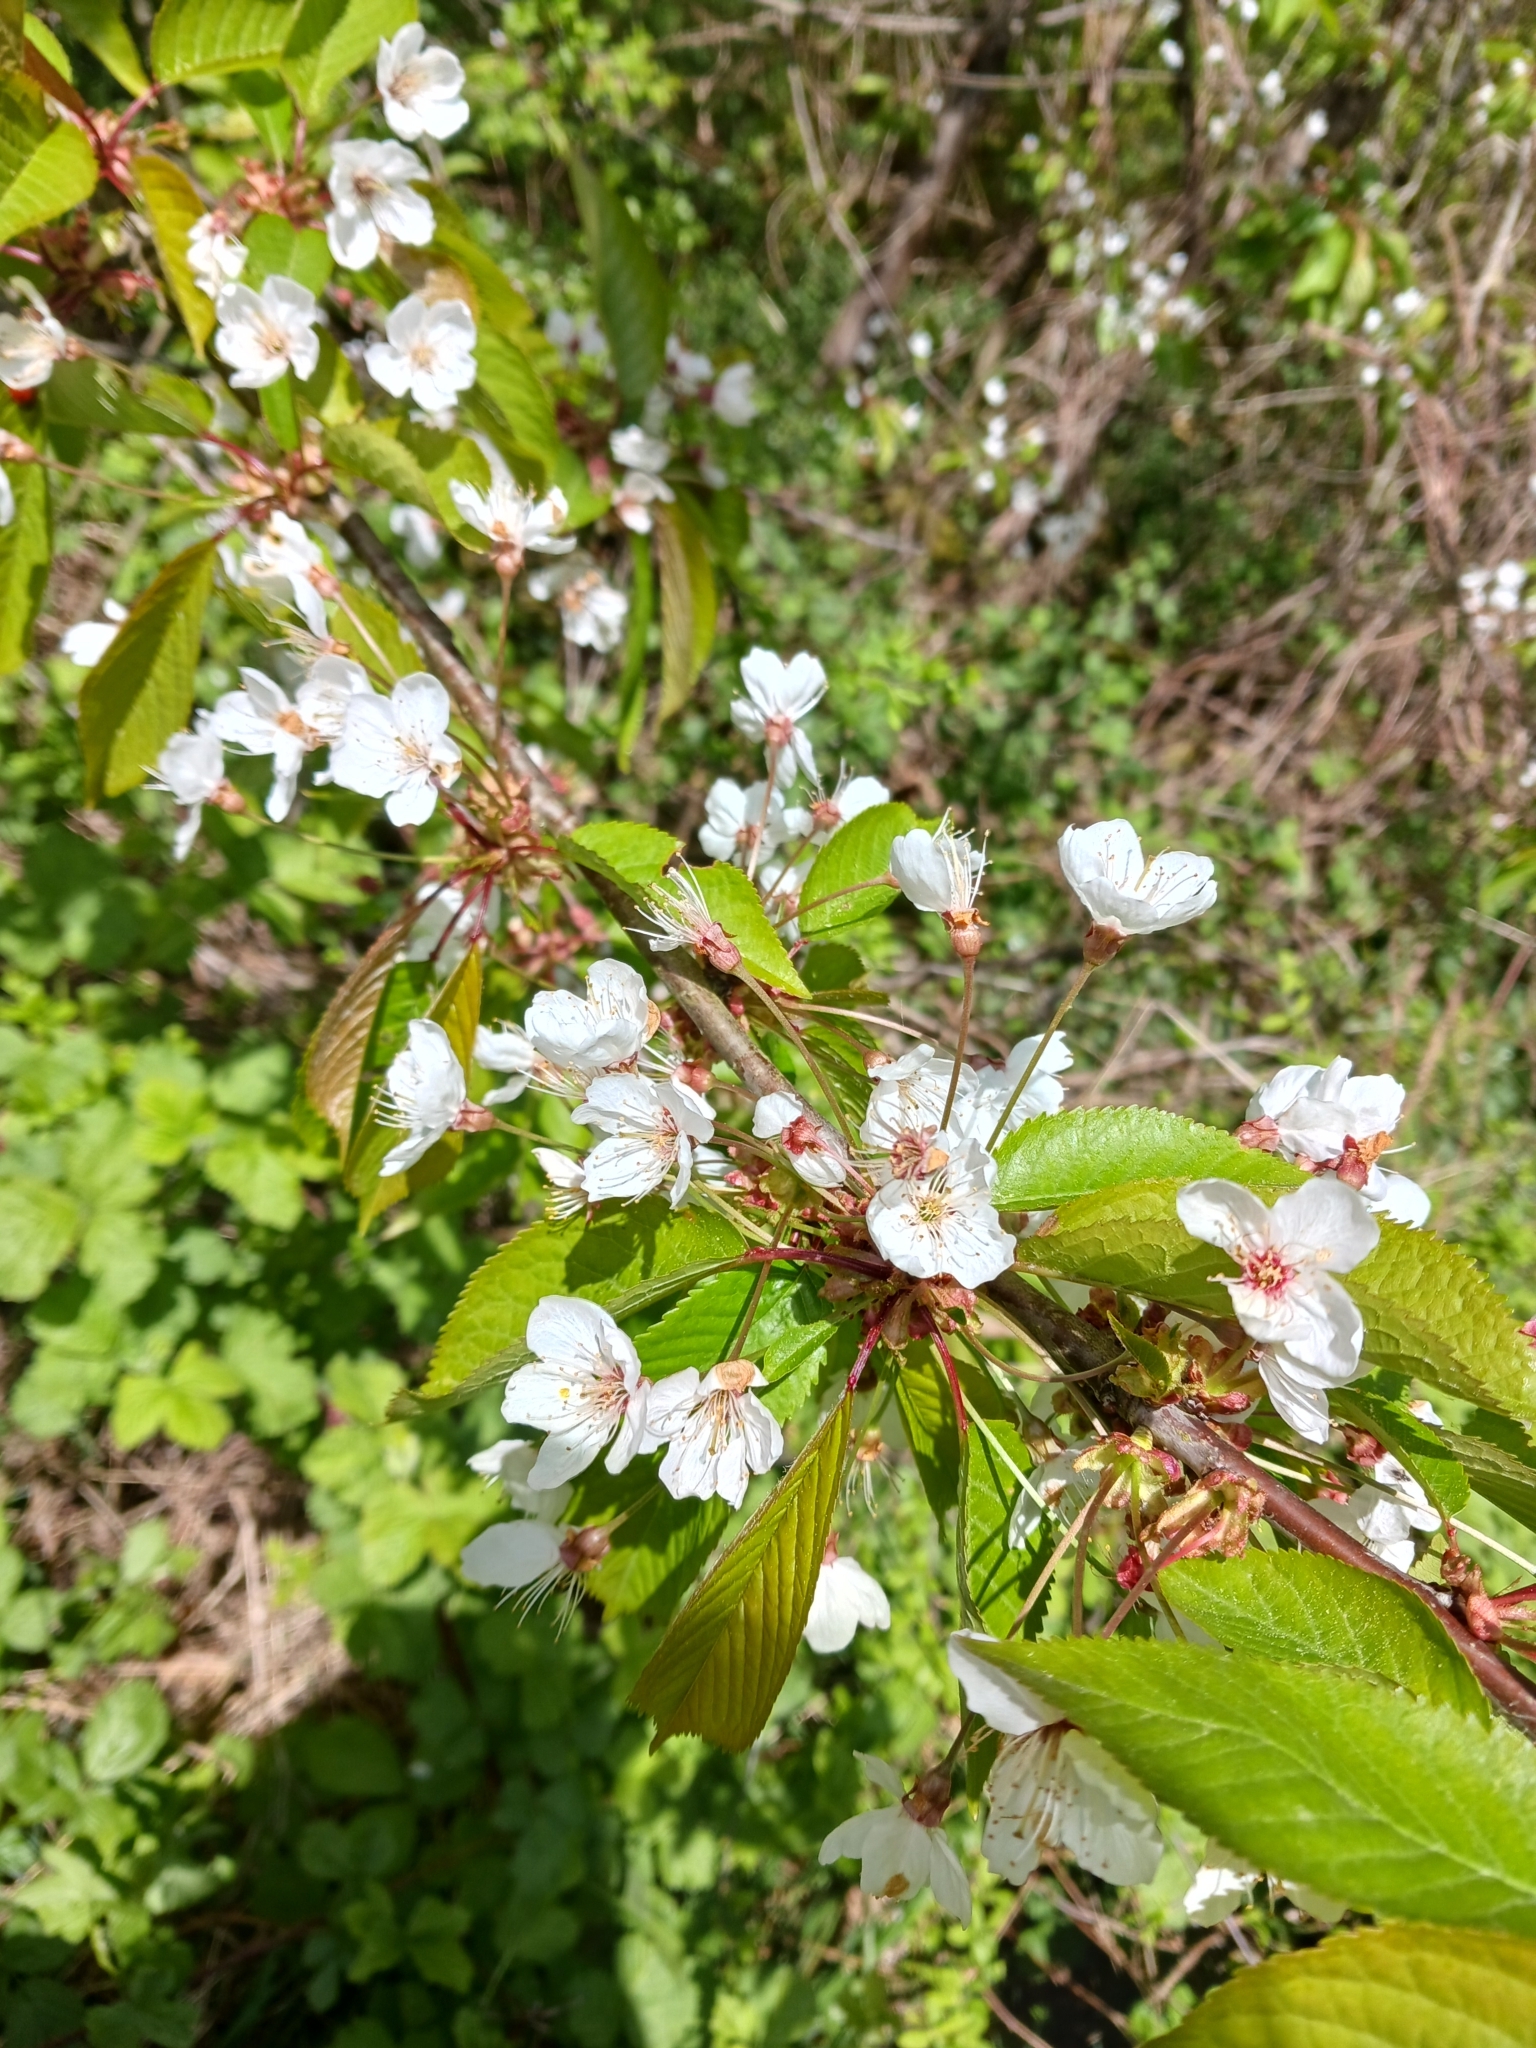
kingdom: Plantae
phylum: Tracheophyta
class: Magnoliopsida
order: Rosales
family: Rosaceae
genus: Prunus
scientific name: Prunus avium
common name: Sweet cherry
